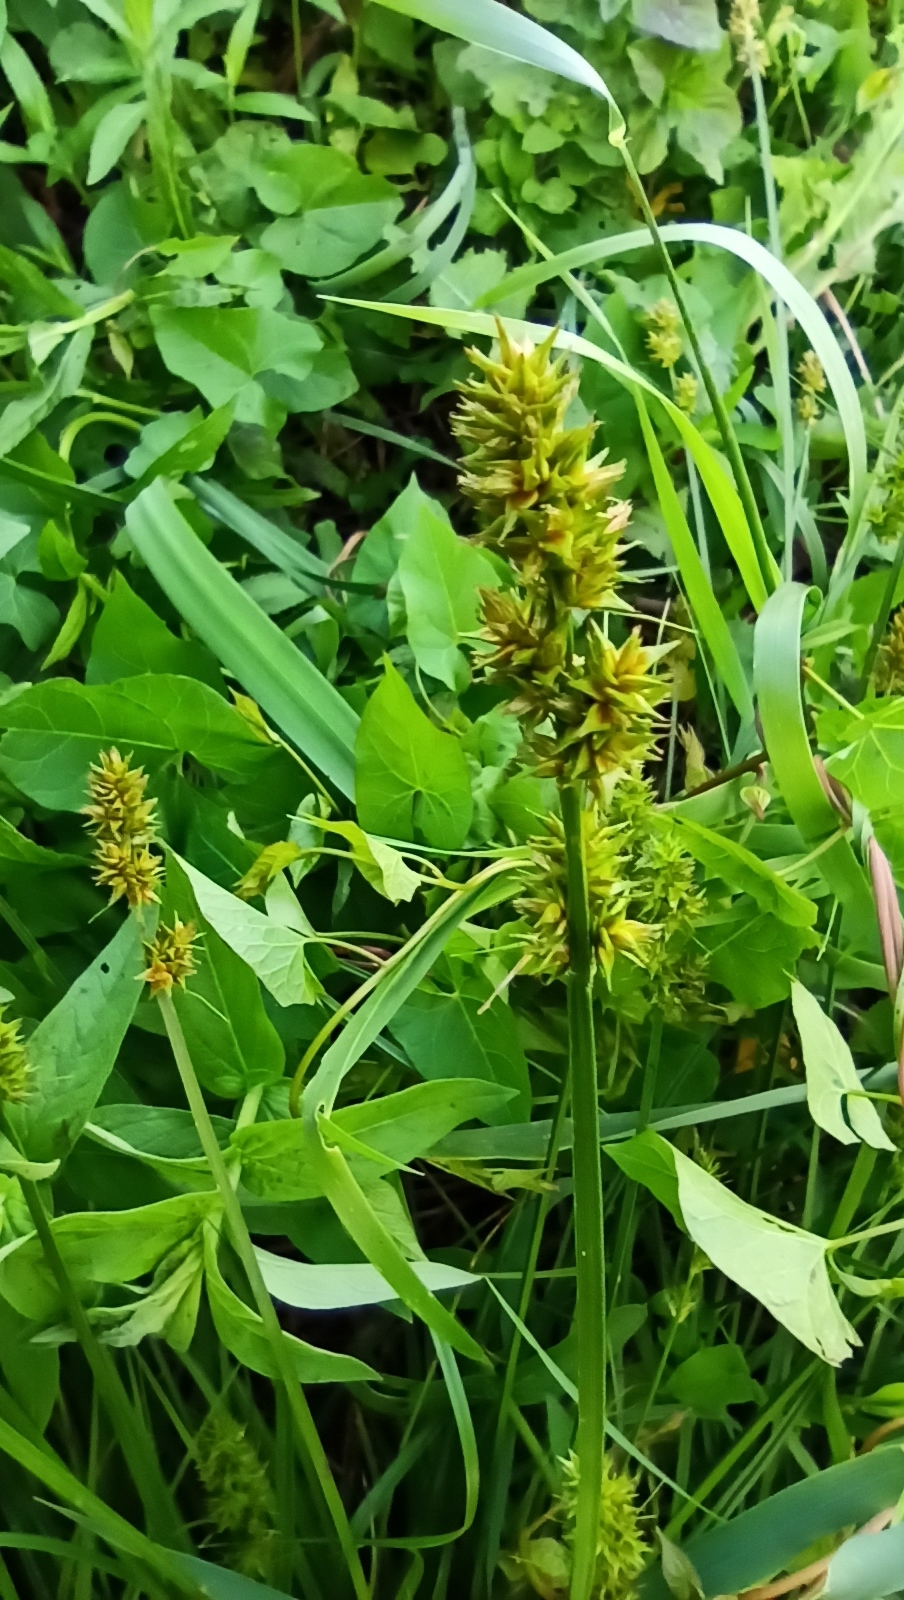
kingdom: Plantae
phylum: Tracheophyta
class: Liliopsida
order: Poales
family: Cyperaceae
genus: Carex
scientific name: Carex otrubae
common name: False fox-sedge
